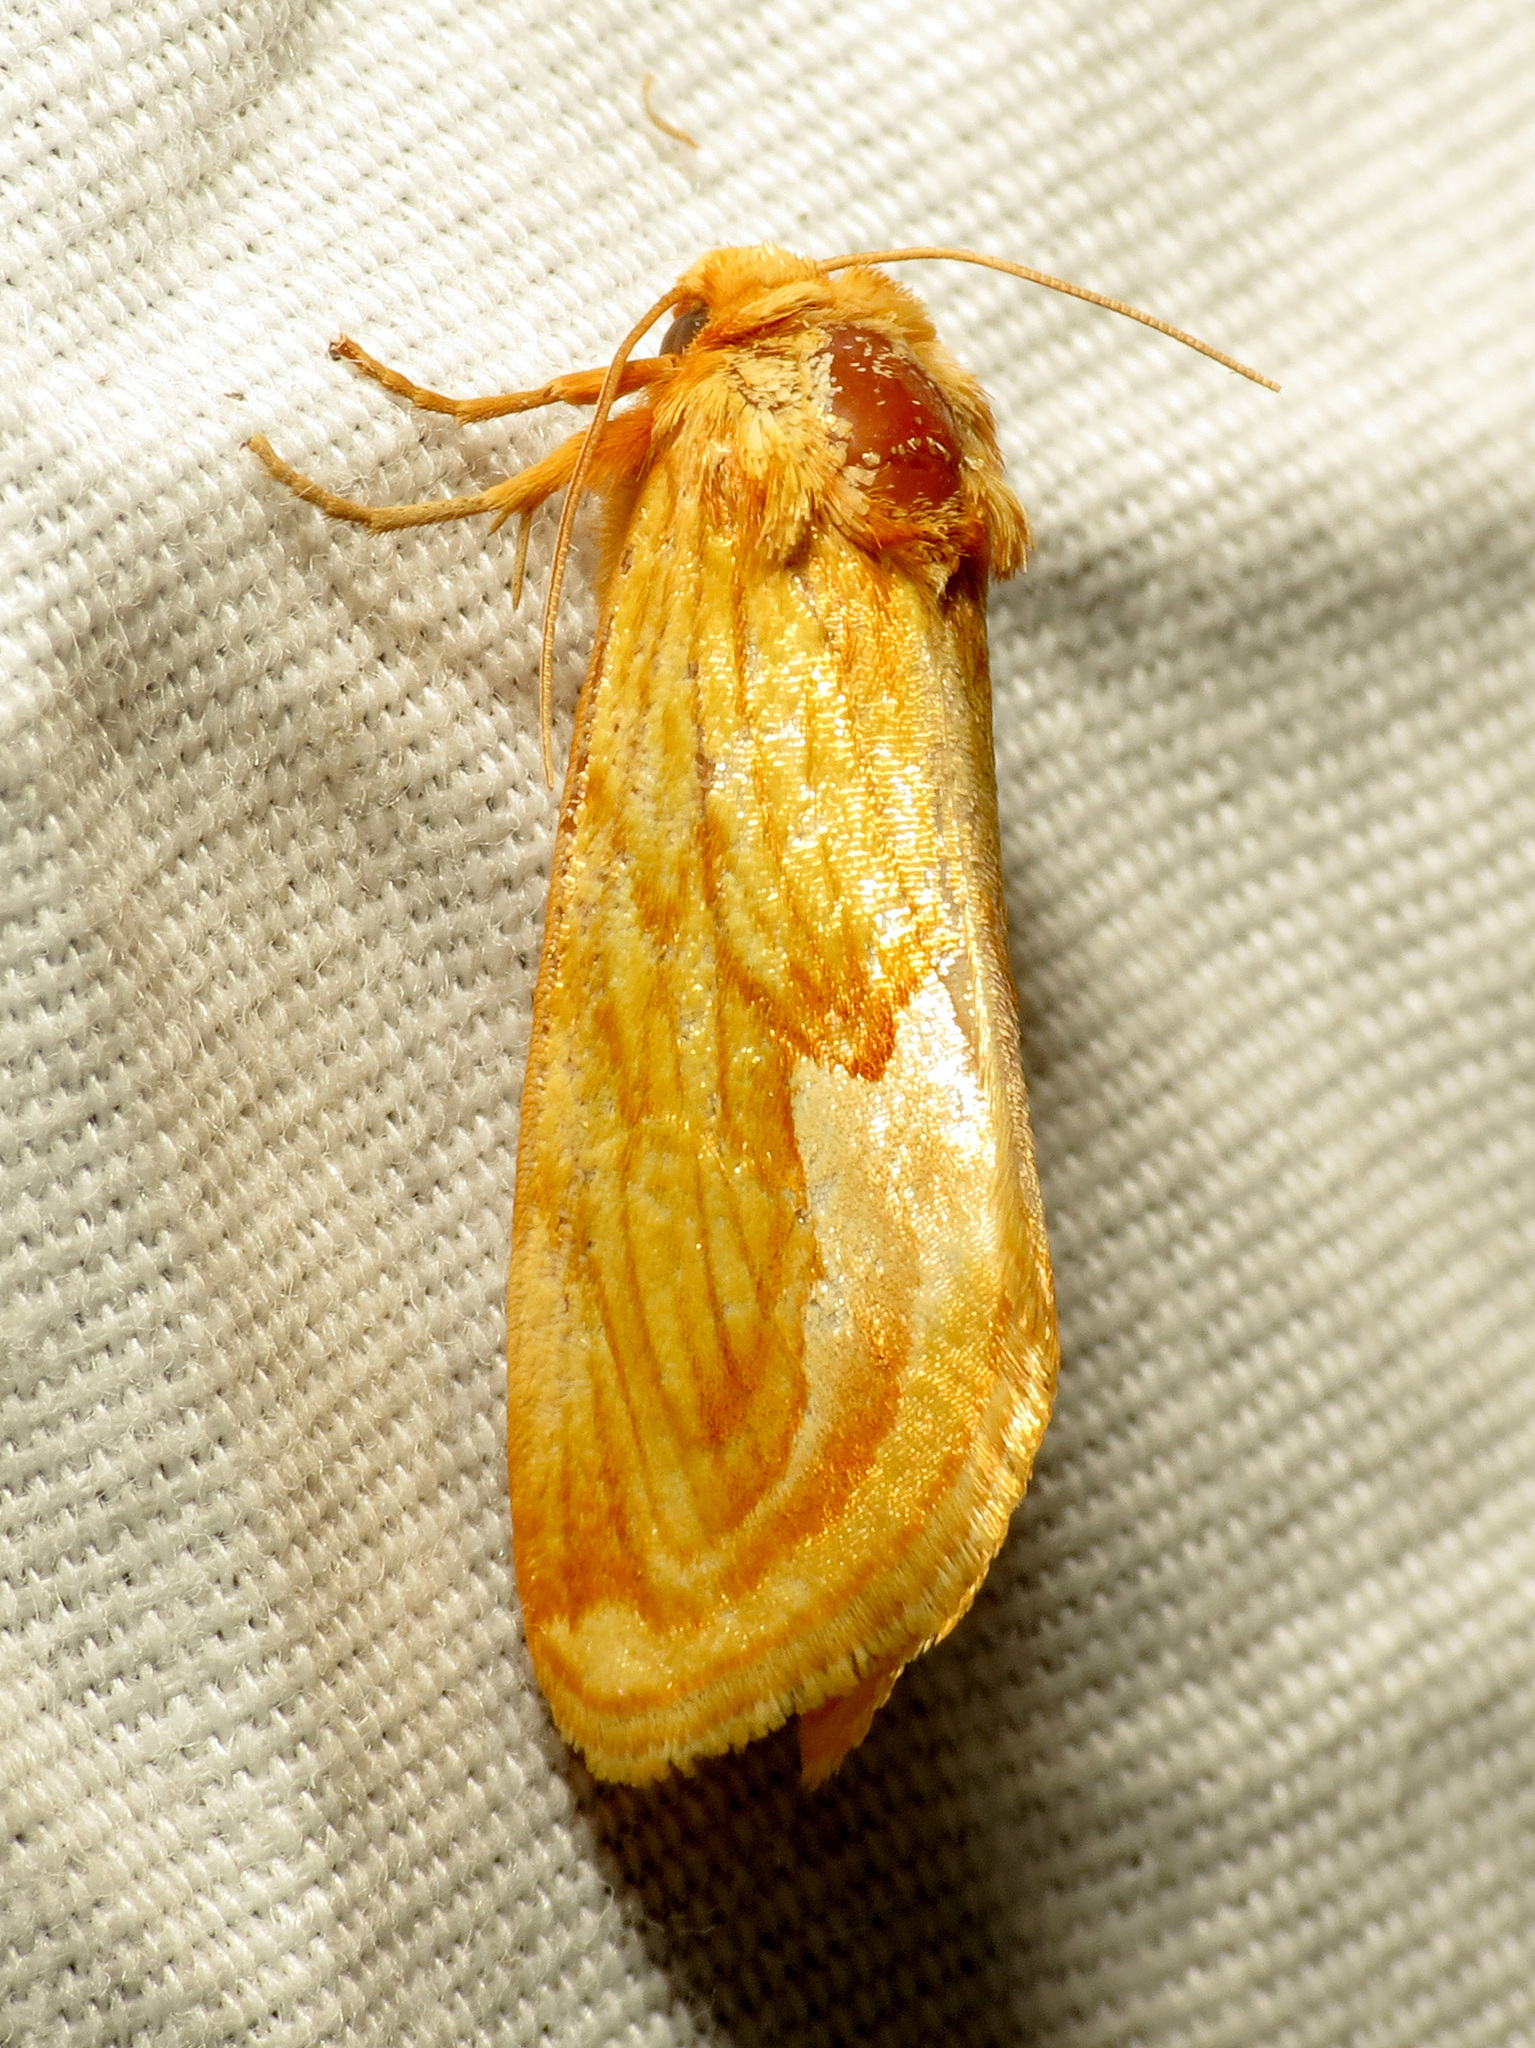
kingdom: Animalia
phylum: Arthropoda
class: Insecta
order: Lepidoptera
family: Noctuidae
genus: Cirrhophanus
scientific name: Cirrhophanus dyari
